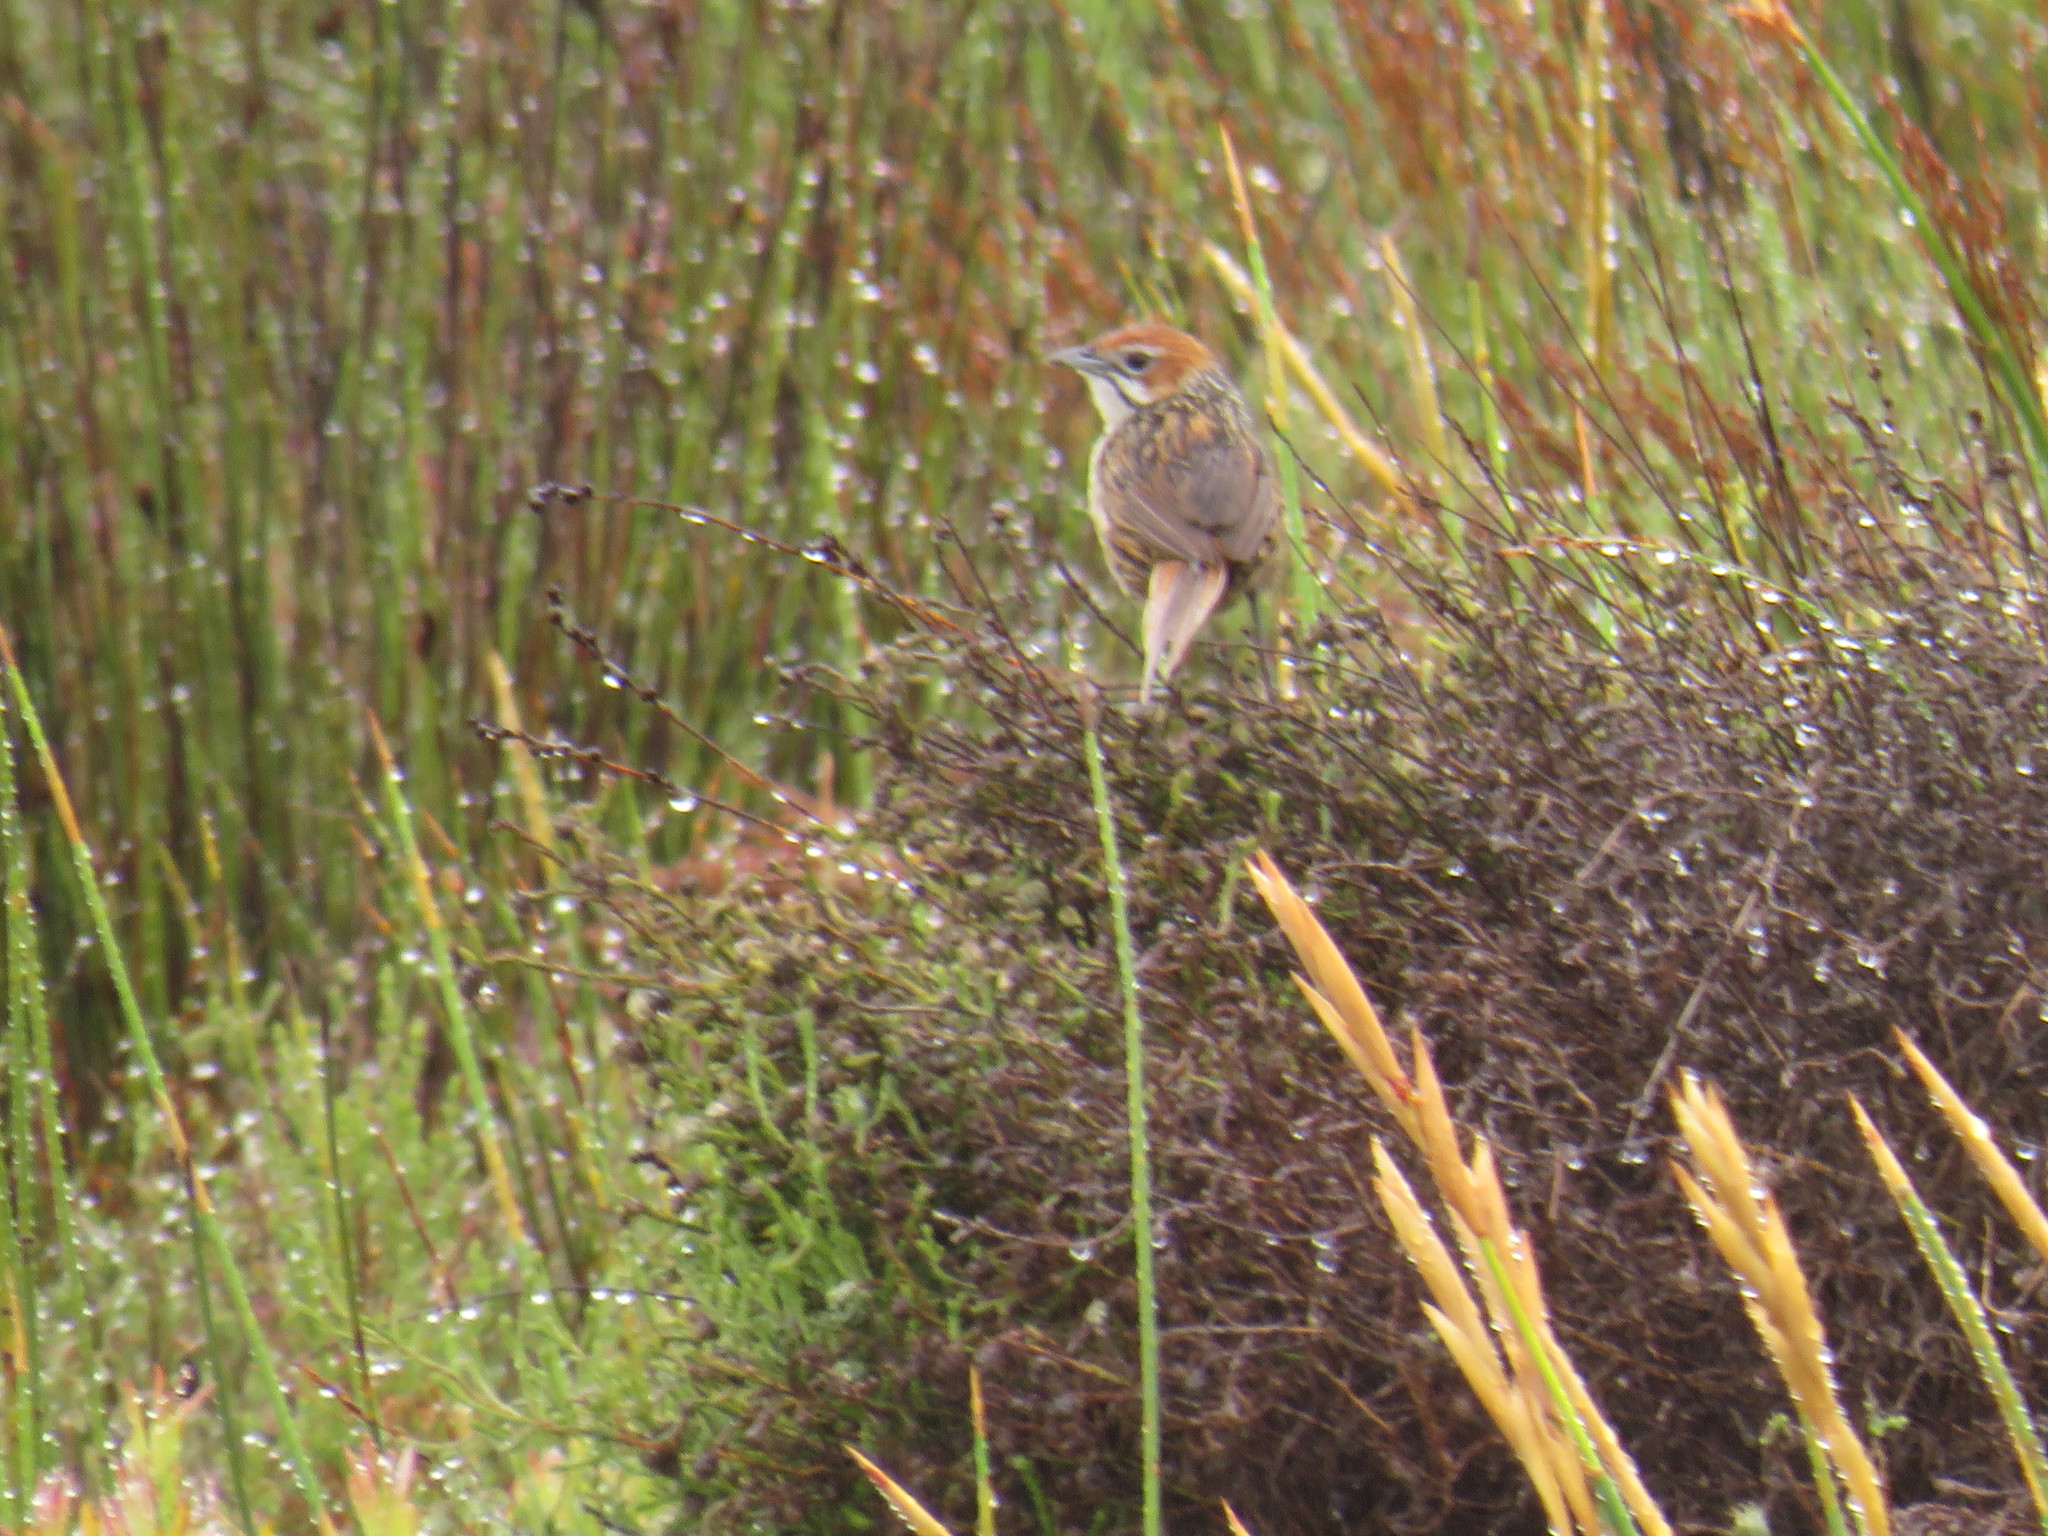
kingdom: Animalia
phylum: Chordata
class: Aves
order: Passeriformes
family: Macrosphenidae
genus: Sphenoeacus
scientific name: Sphenoeacus afer
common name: Cape grassbird
